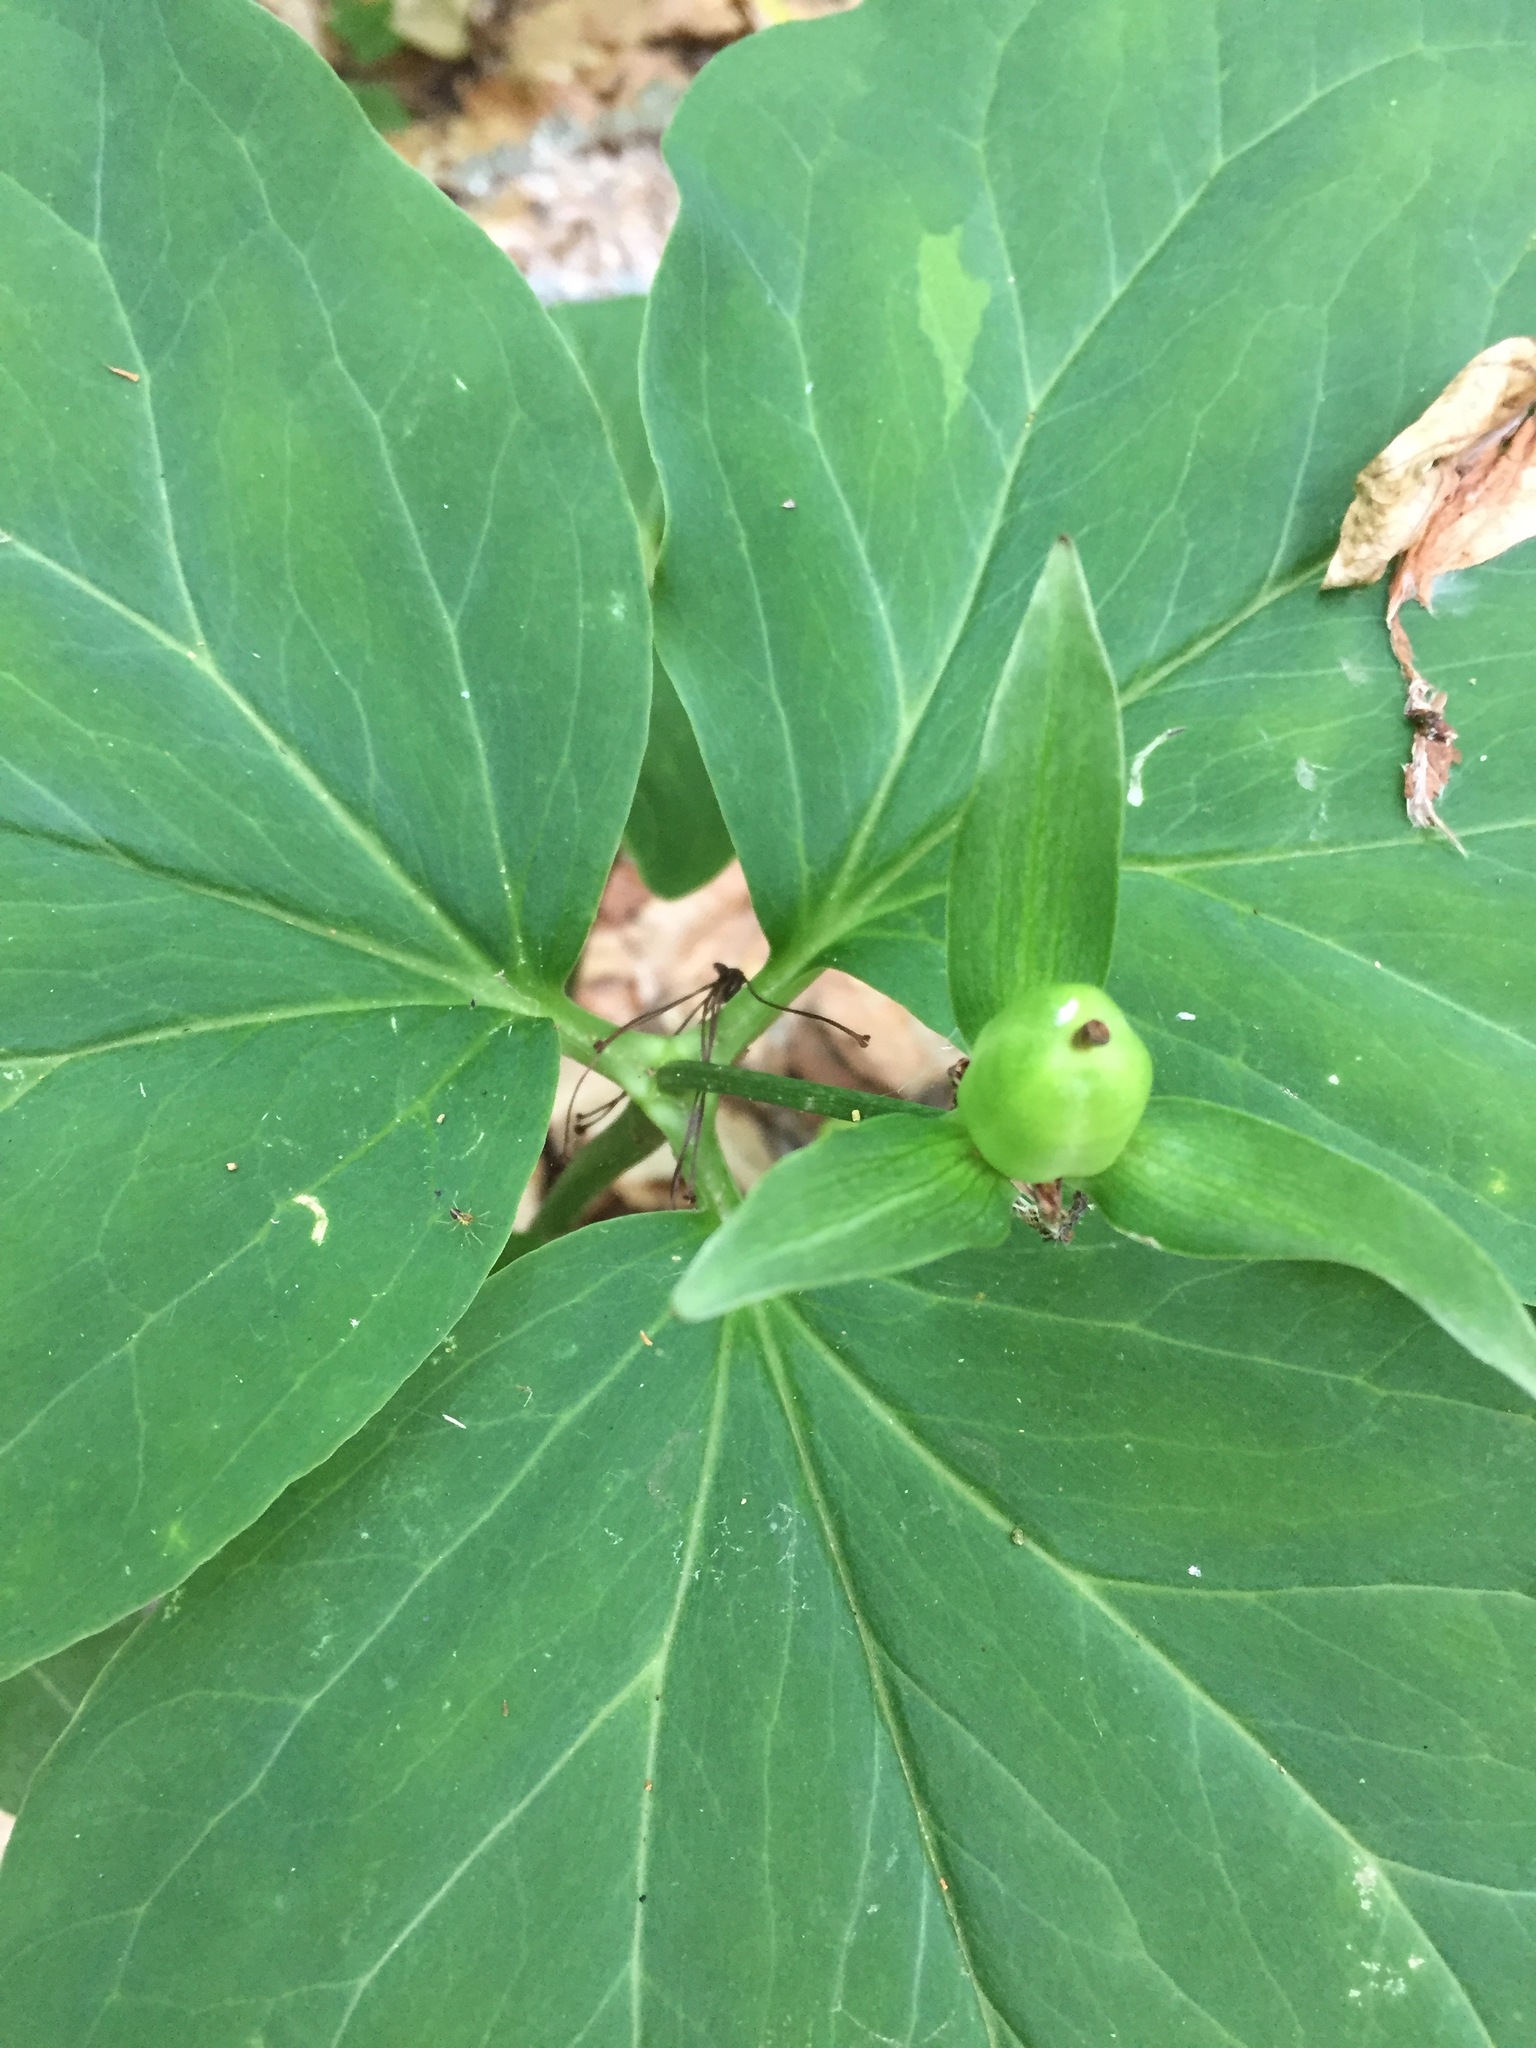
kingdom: Plantae
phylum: Tracheophyta
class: Liliopsida
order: Liliales
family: Melanthiaceae
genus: Trillium
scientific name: Trillium undulatum
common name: Paint trillium
